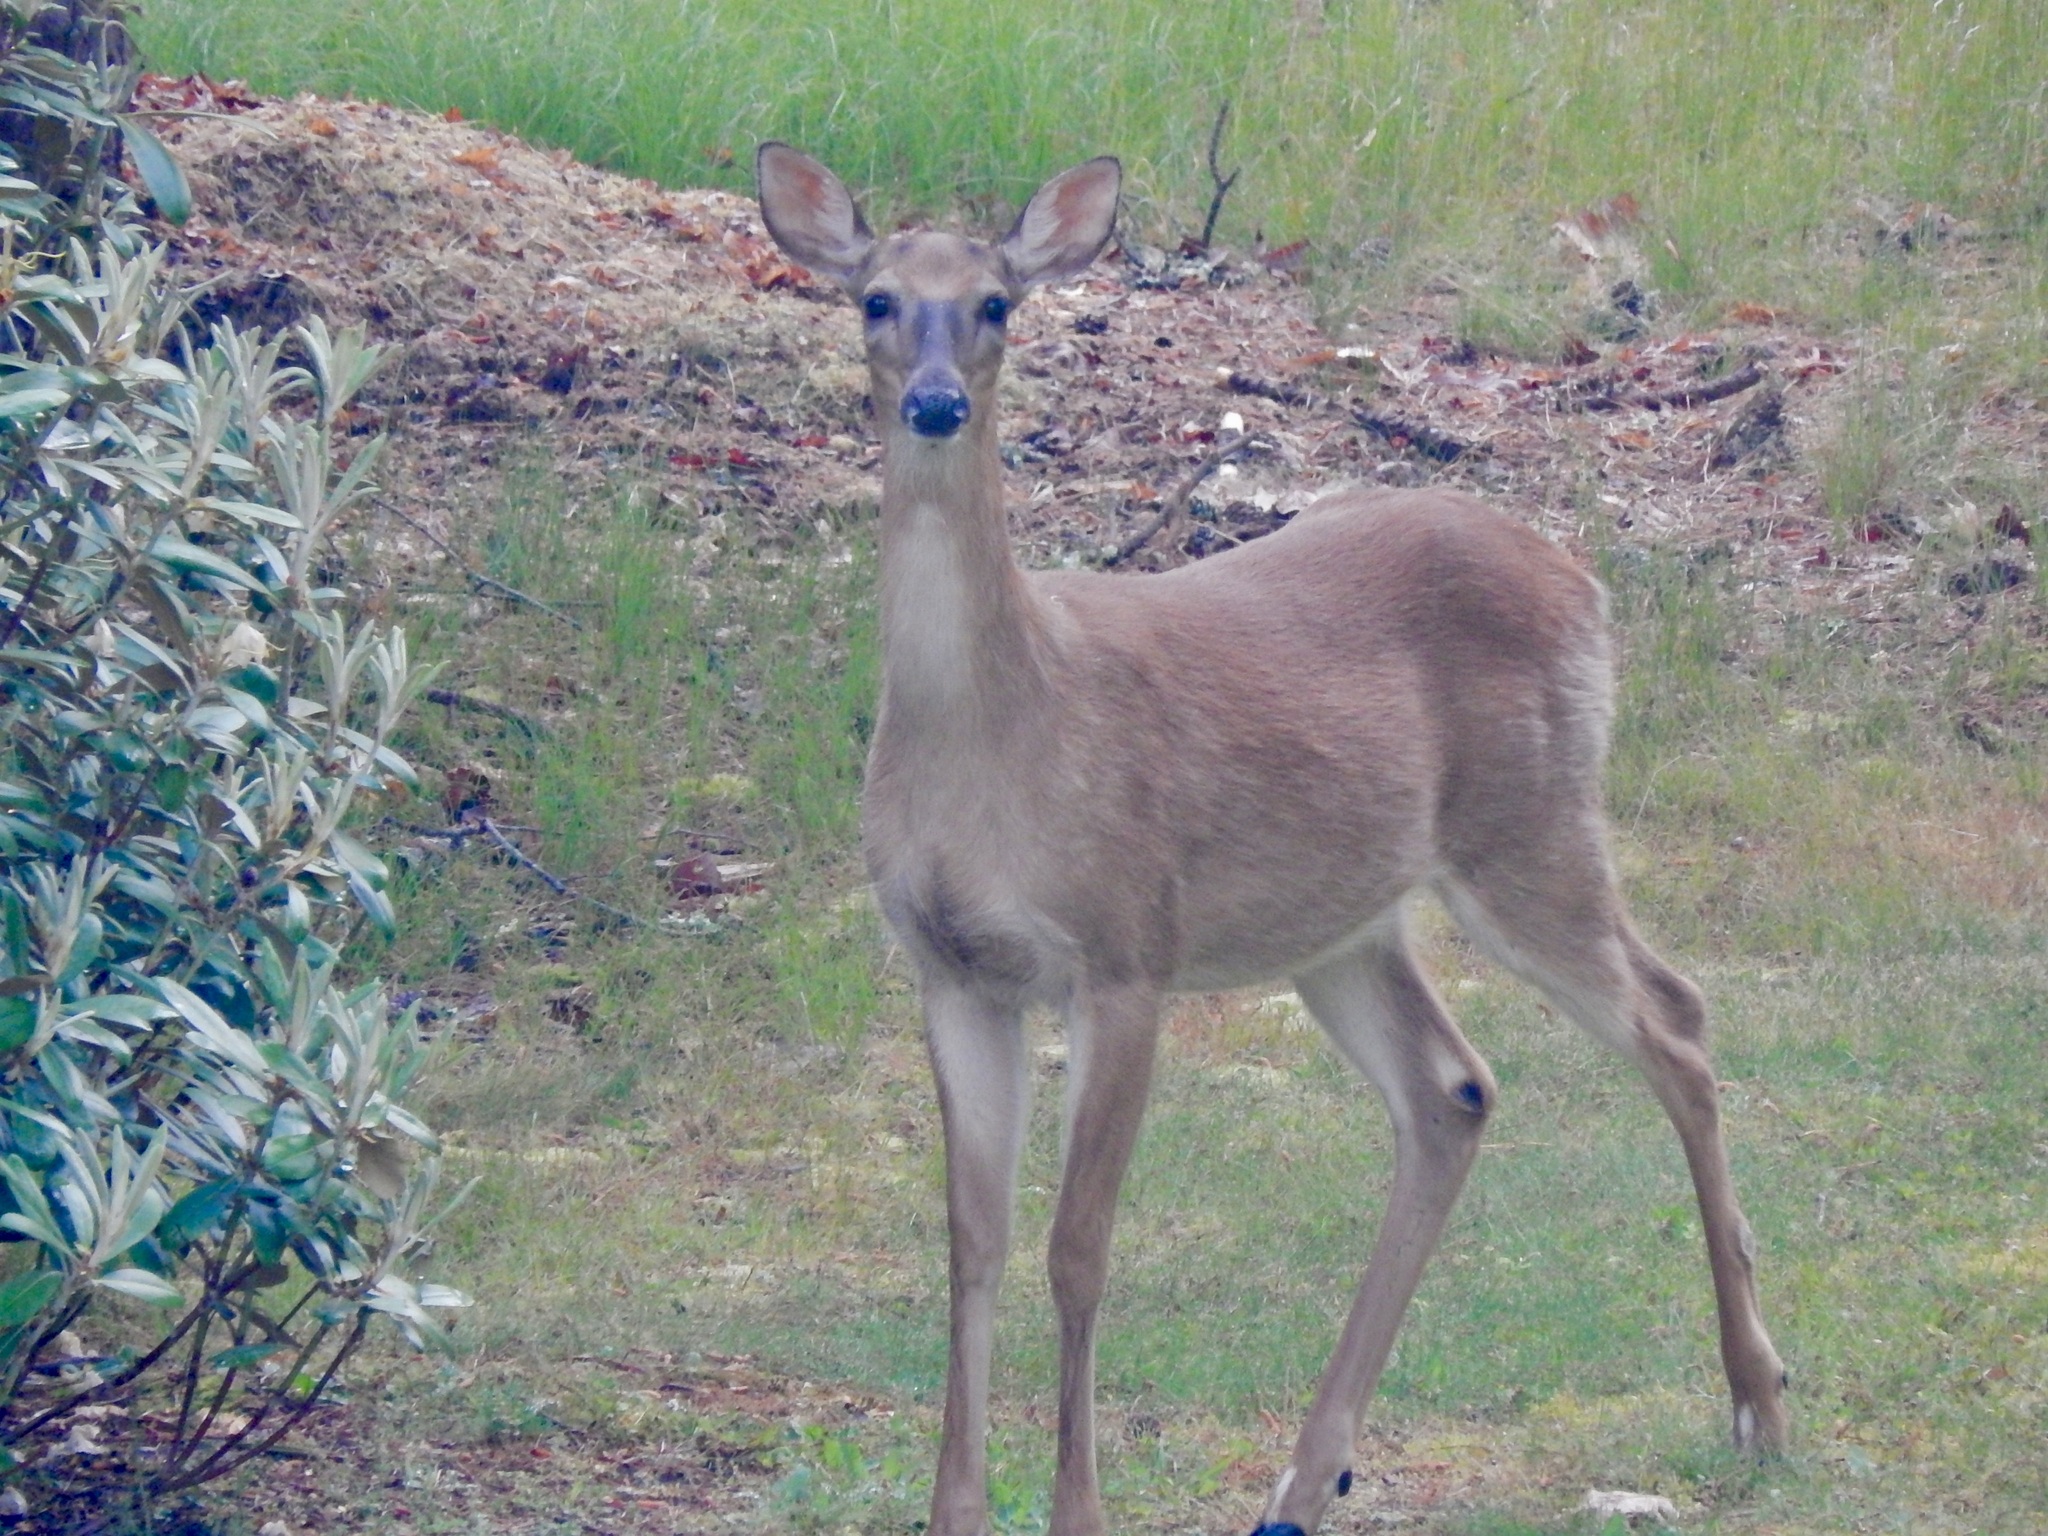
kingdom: Animalia
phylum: Chordata
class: Mammalia
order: Artiodactyla
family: Cervidae
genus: Odocoileus
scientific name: Odocoileus virginianus
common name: White-tailed deer
